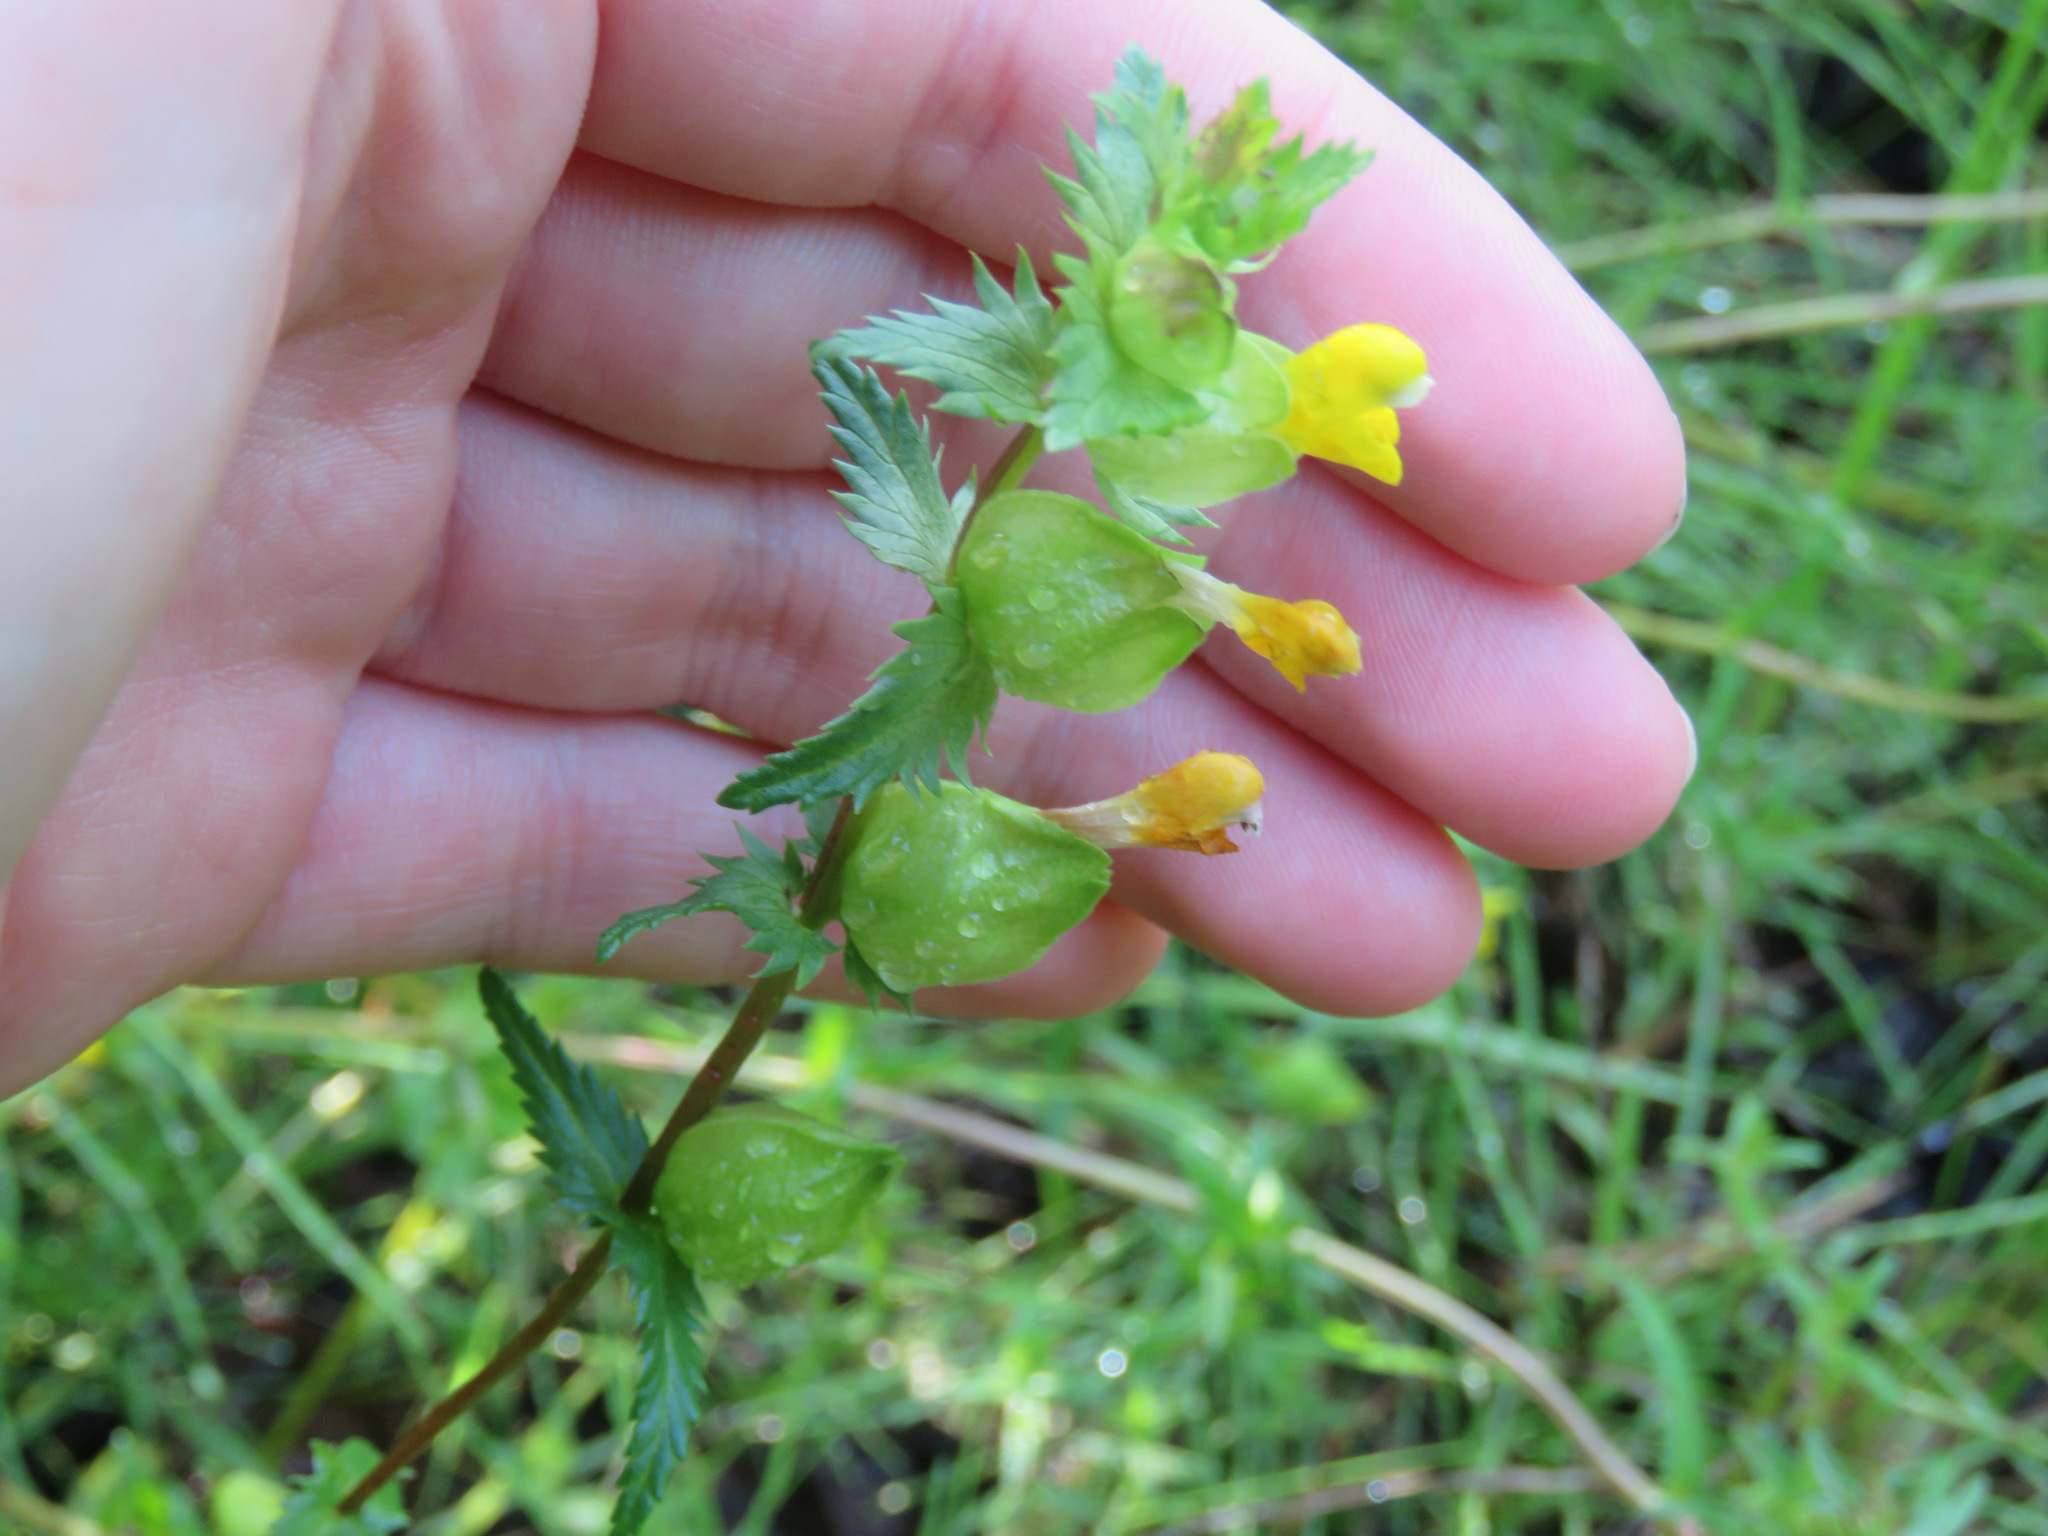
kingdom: Plantae
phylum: Tracheophyta
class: Magnoliopsida
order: Lamiales
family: Orobanchaceae
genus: Rhinanthus
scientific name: Rhinanthus minor
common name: Yellow-rattle
